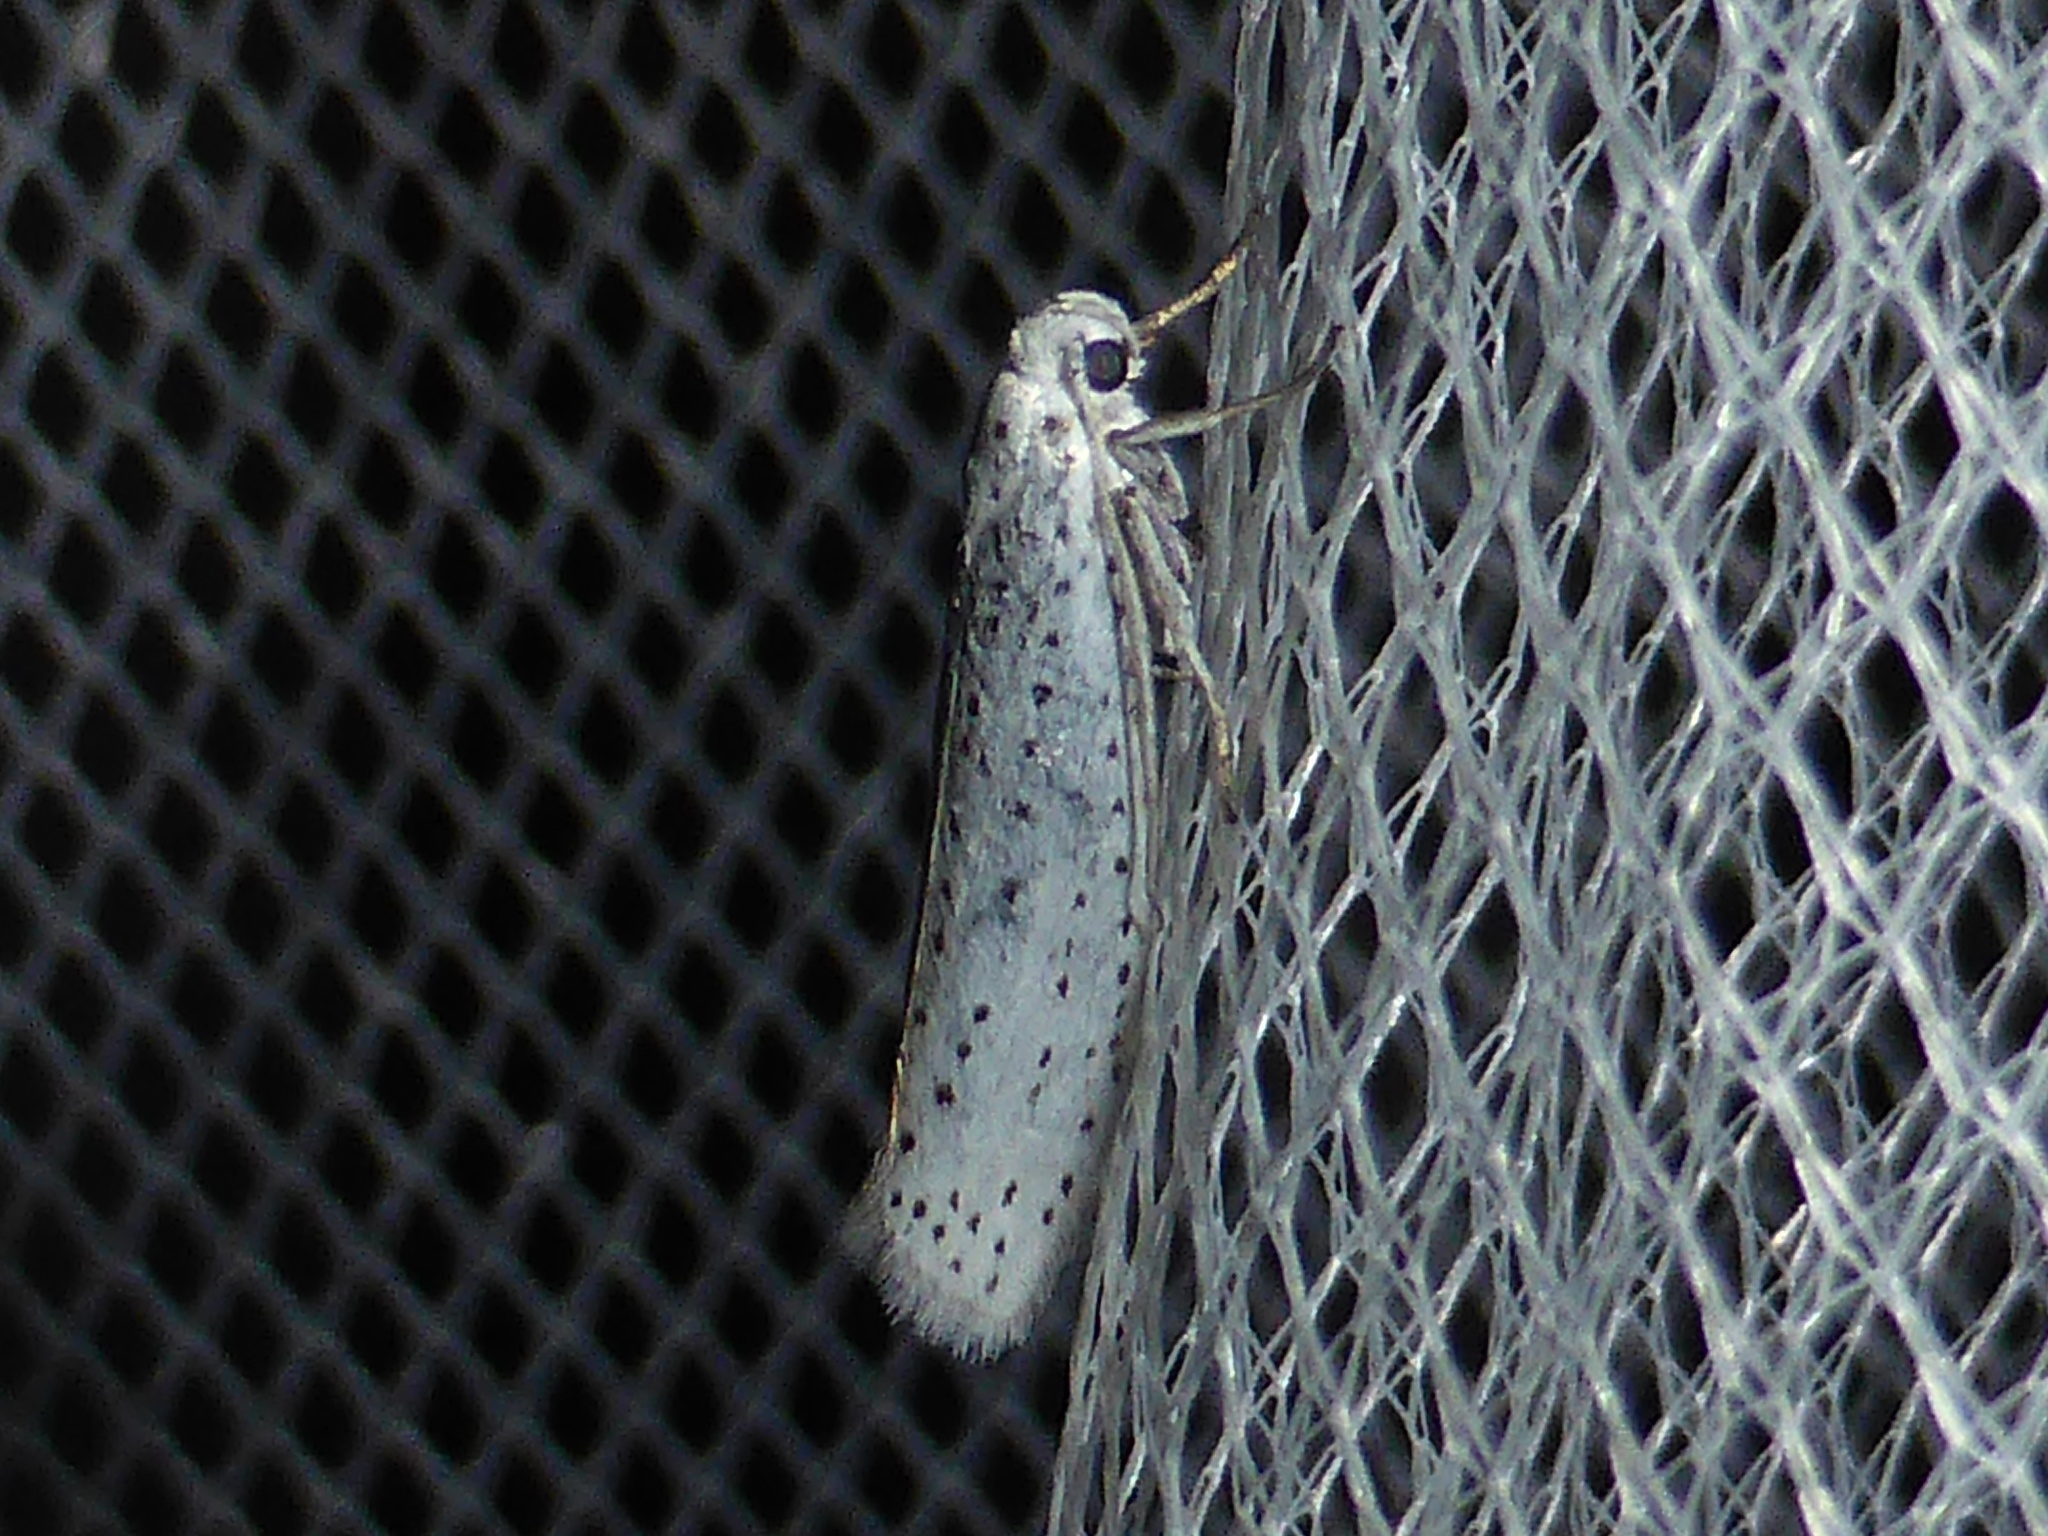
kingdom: Animalia
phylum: Arthropoda
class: Insecta
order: Lepidoptera
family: Yponomeutidae
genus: Yponomeuta
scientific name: Yponomeuta evonymella
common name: Bird-cherry ermine
